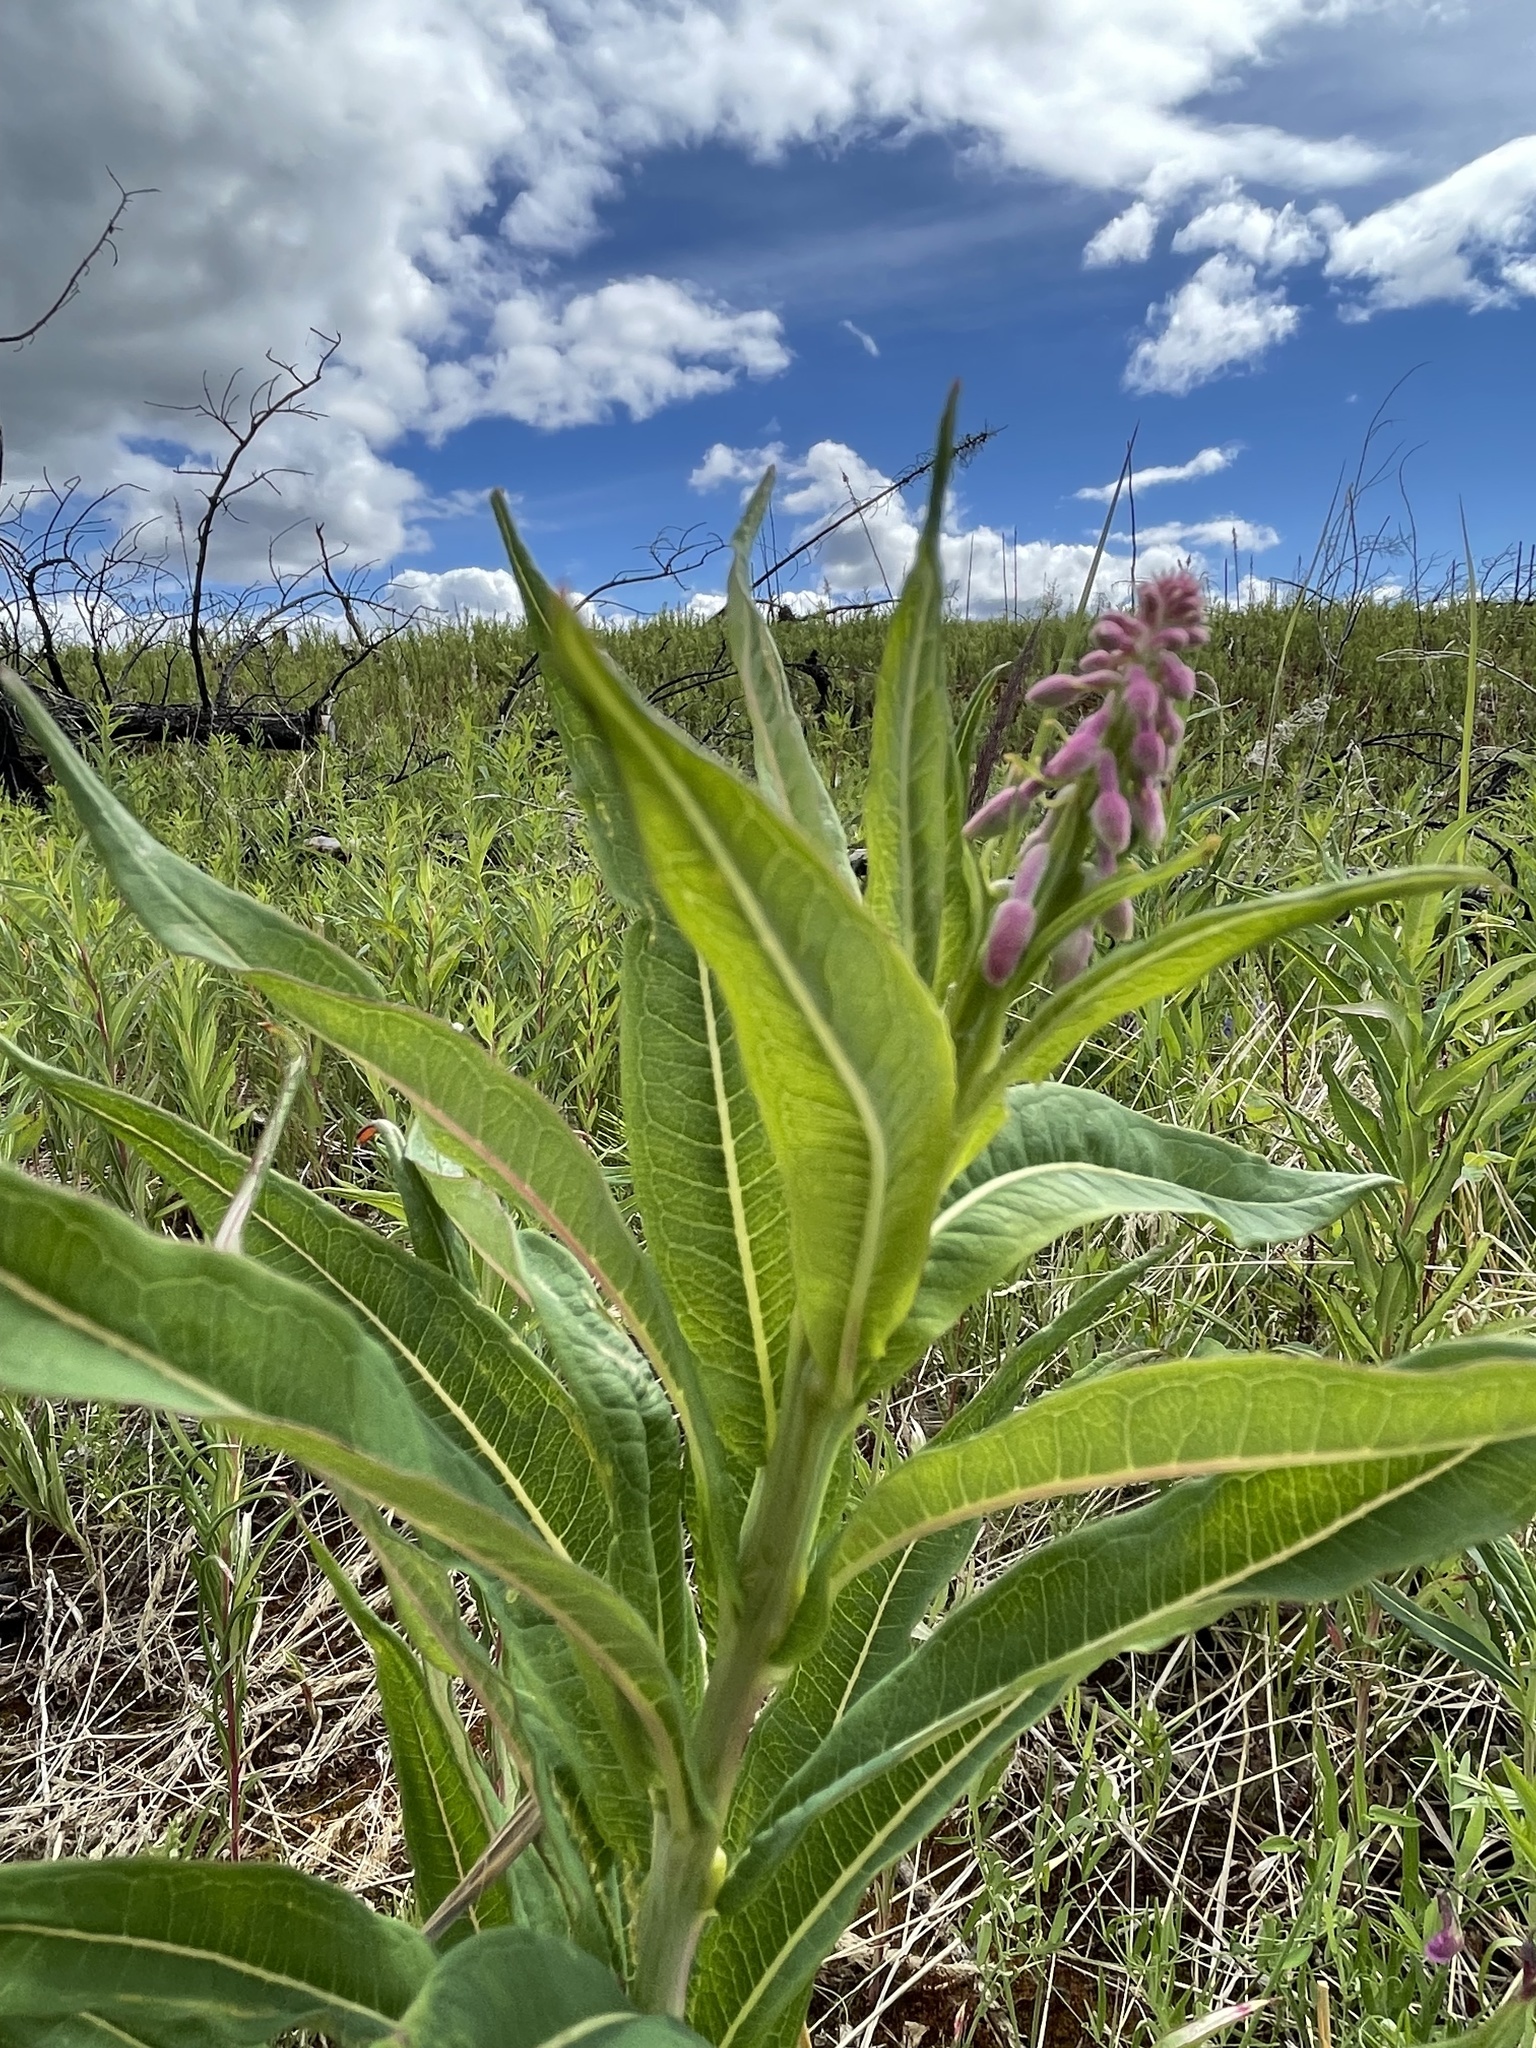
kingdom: Plantae
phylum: Tracheophyta
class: Magnoliopsida
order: Myrtales
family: Onagraceae
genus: Chamaenerion
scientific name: Chamaenerion angustifolium
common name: Fireweed
